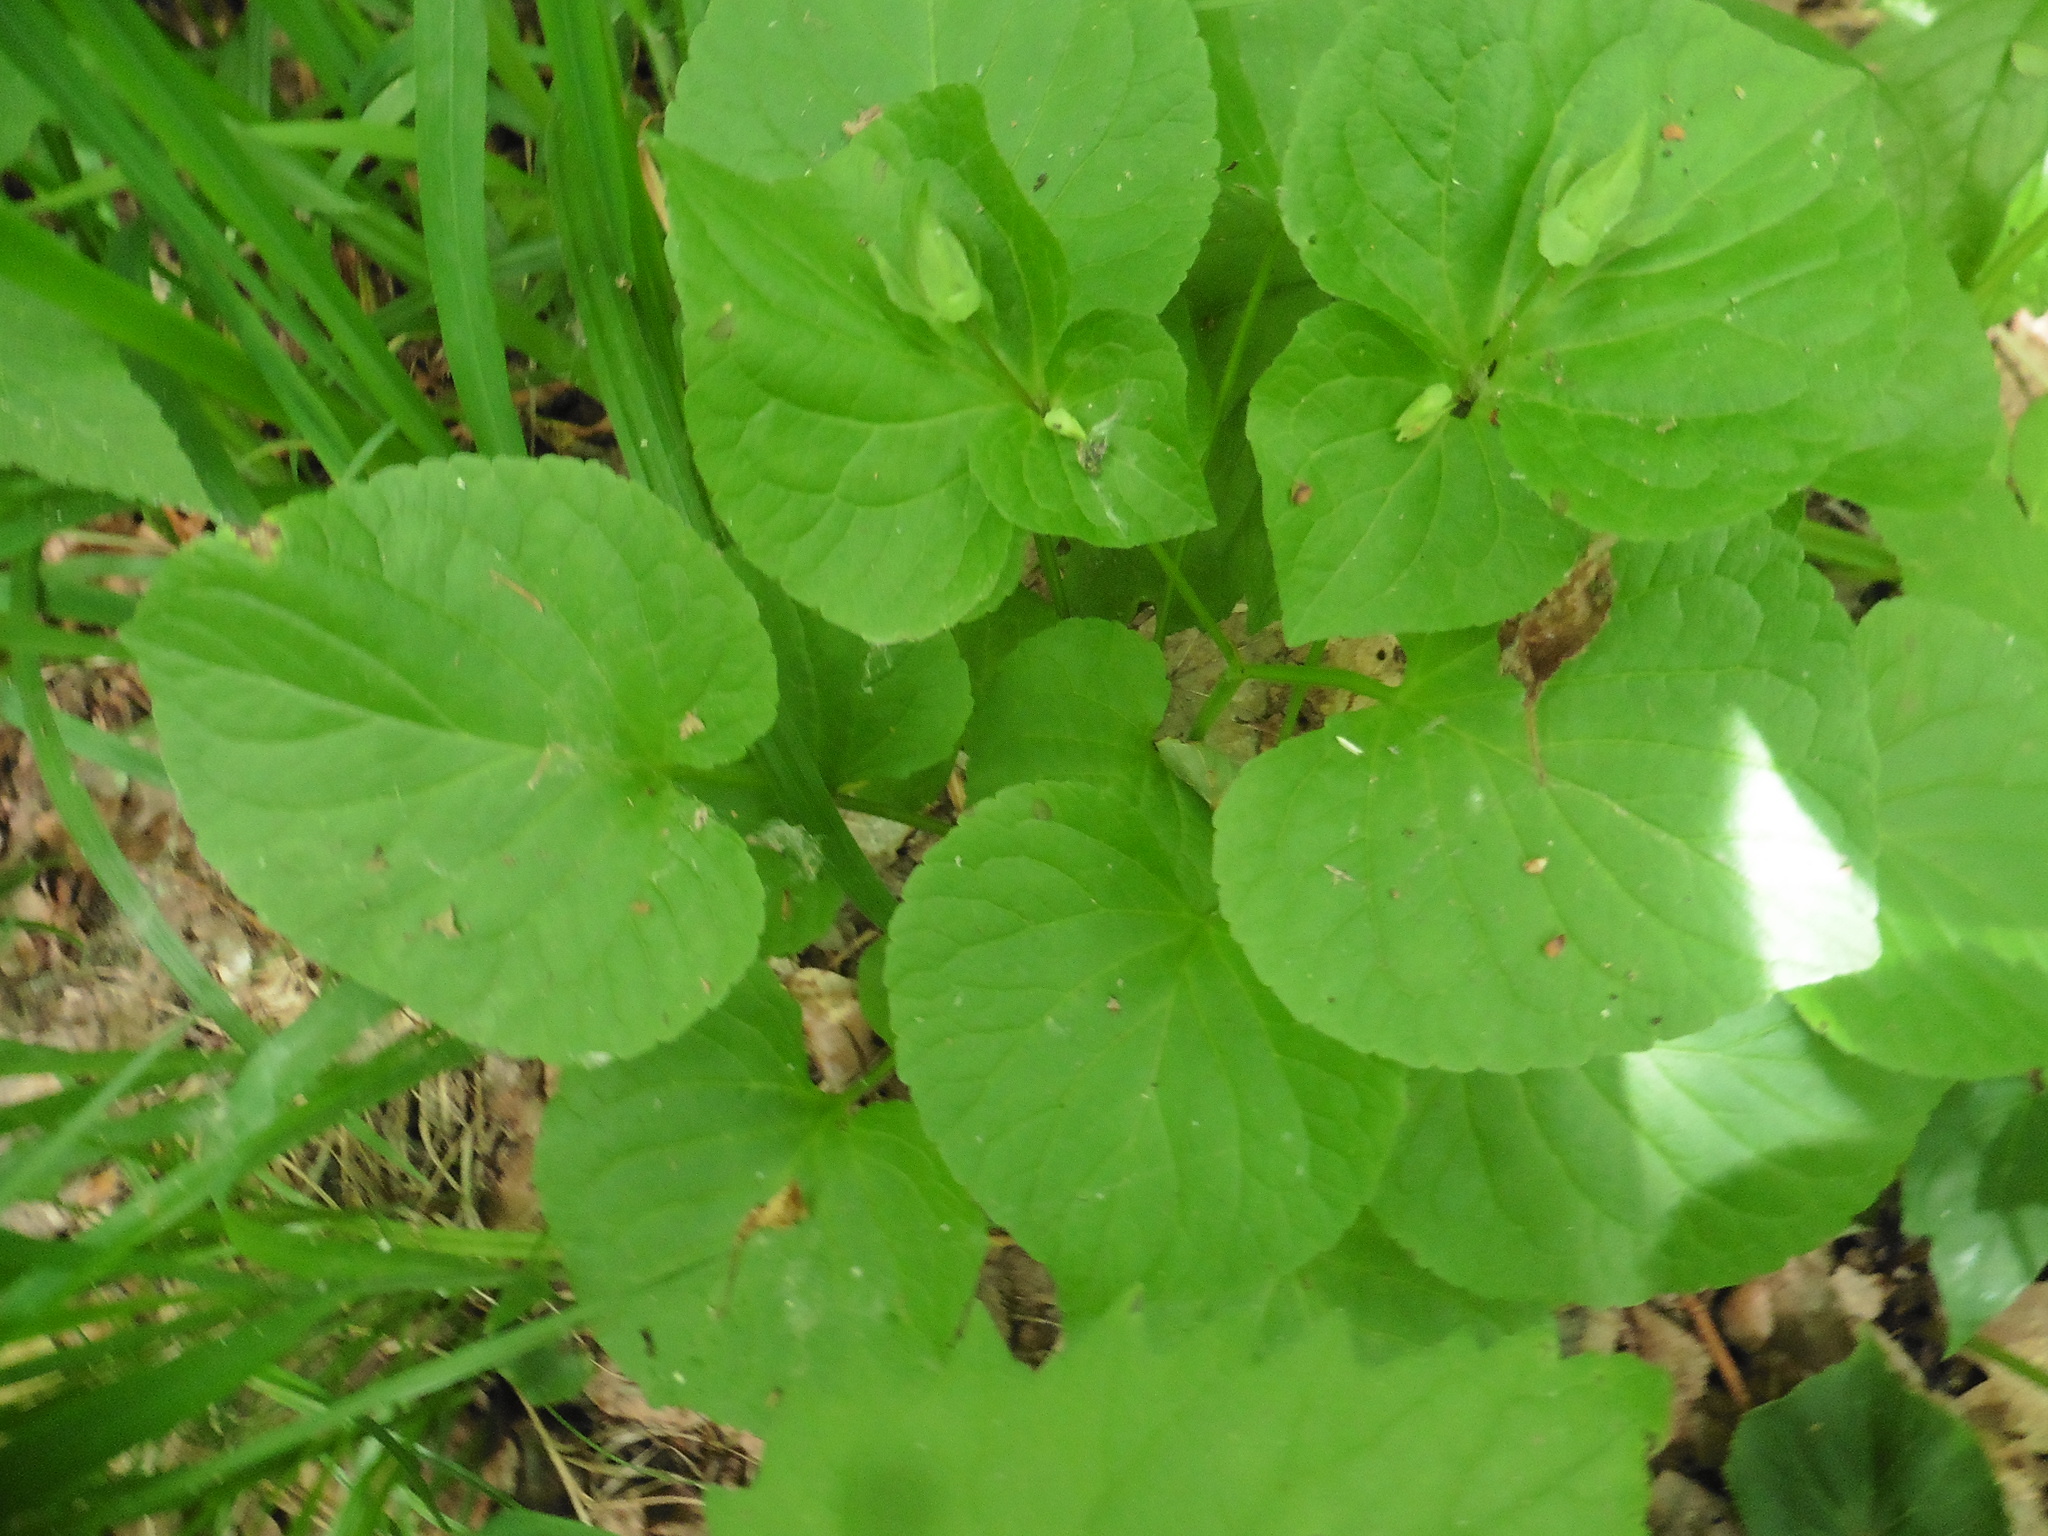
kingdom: Plantae
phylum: Tracheophyta
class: Magnoliopsida
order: Malpighiales
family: Violaceae
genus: Viola
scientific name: Viola mirabilis
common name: Wonder violet
